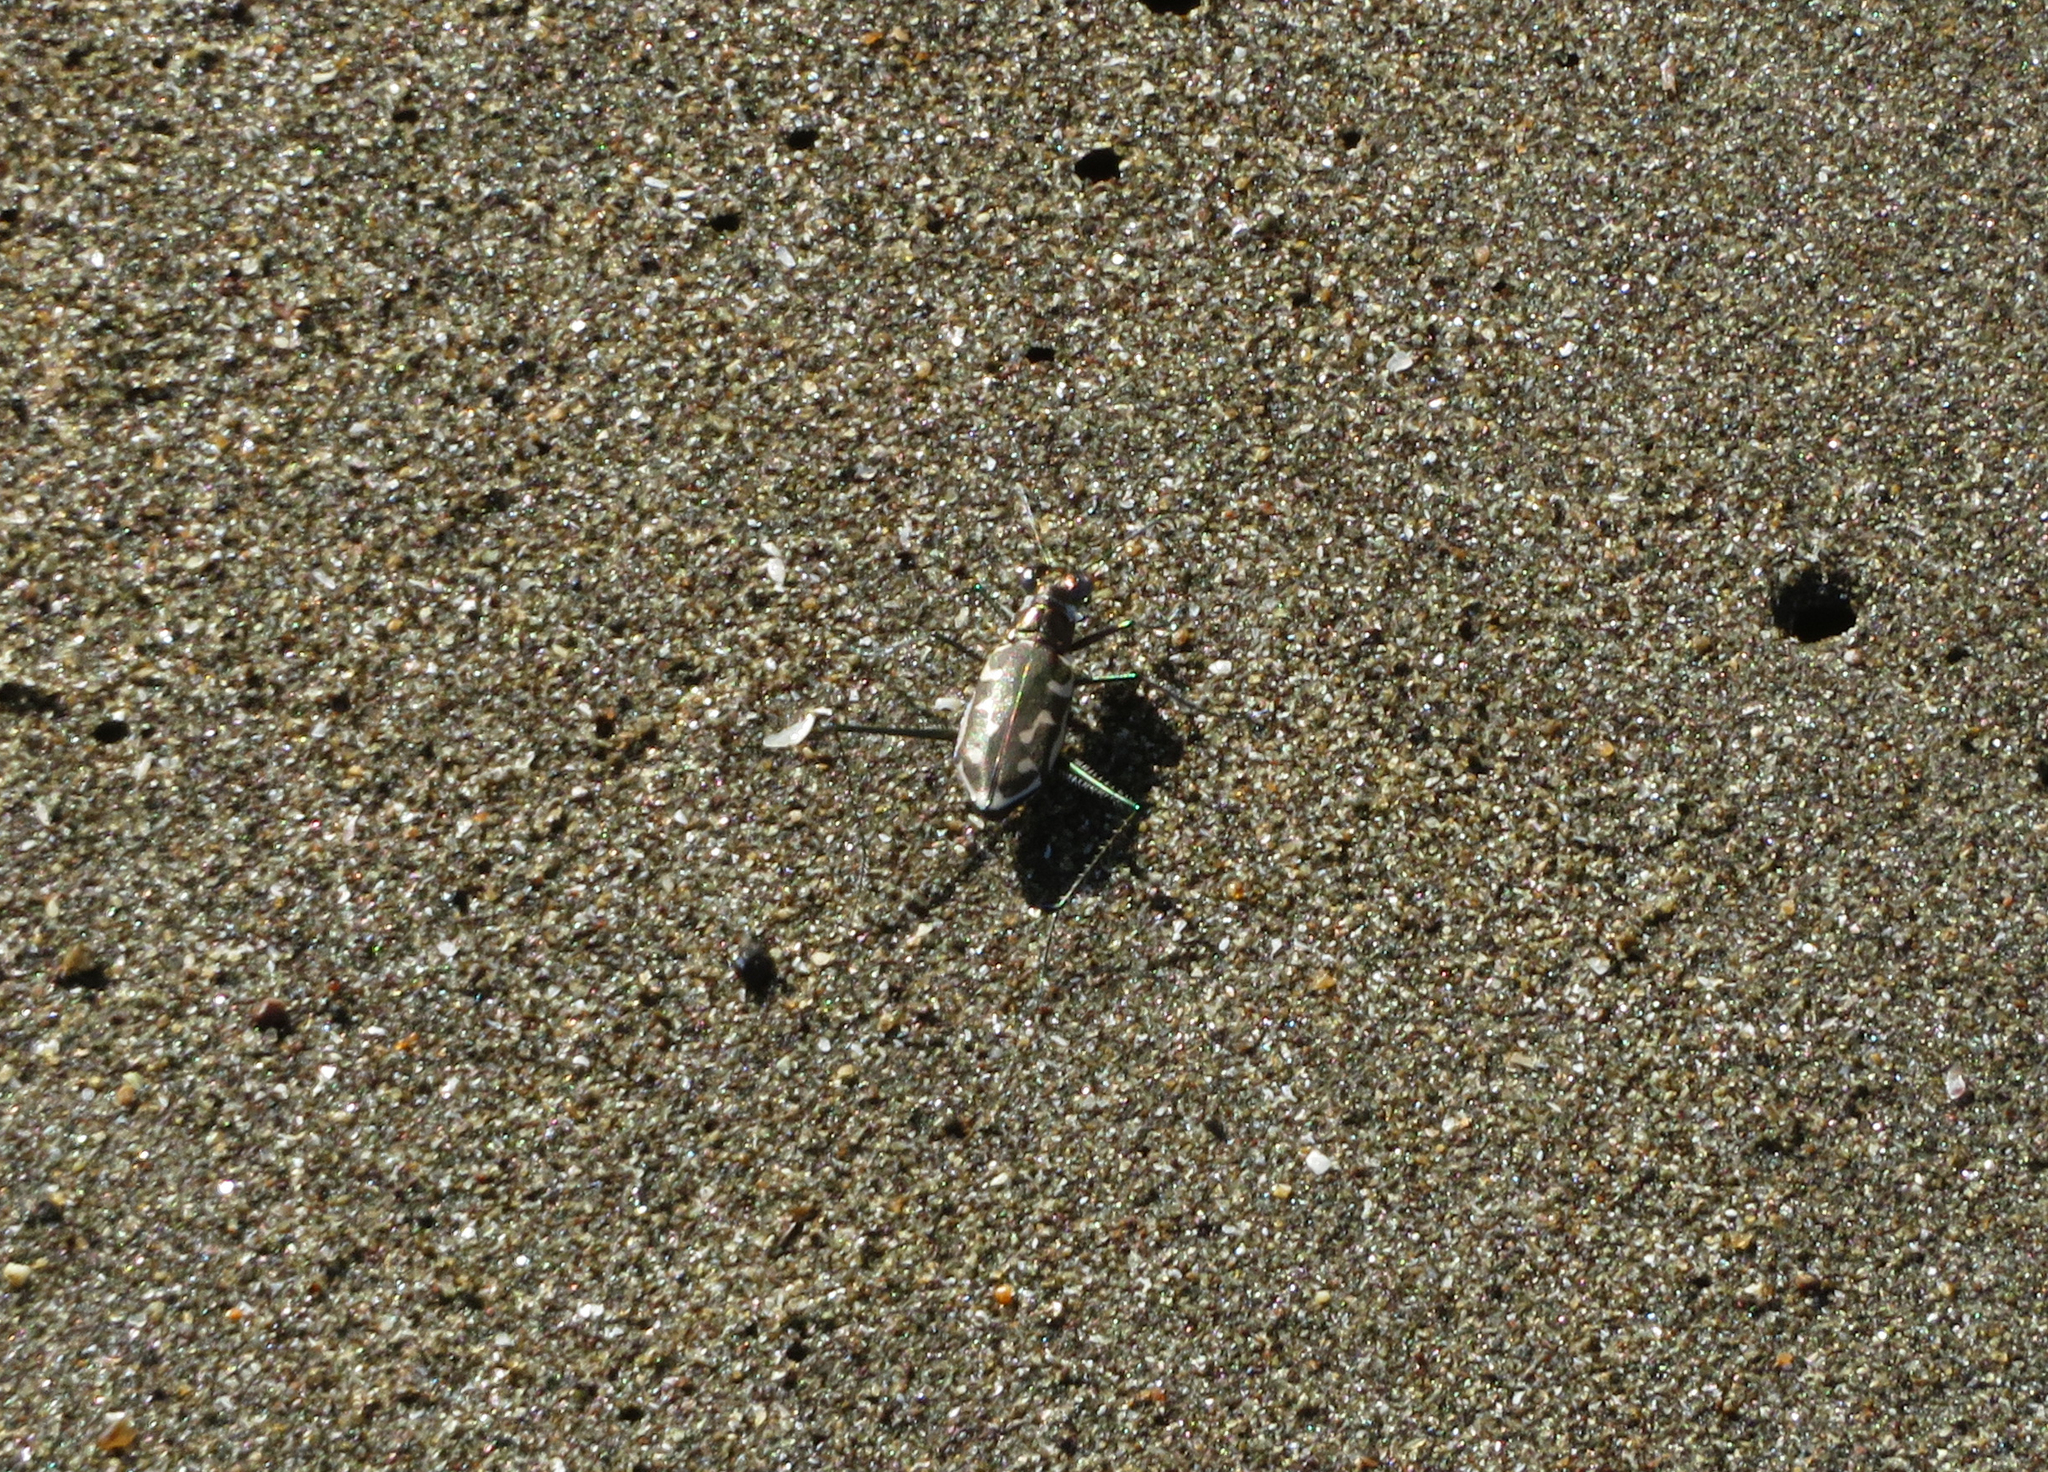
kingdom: Animalia
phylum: Arthropoda
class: Insecta
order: Coleoptera
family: Carabidae
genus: Opilidia
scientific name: Opilidia macrocnema
